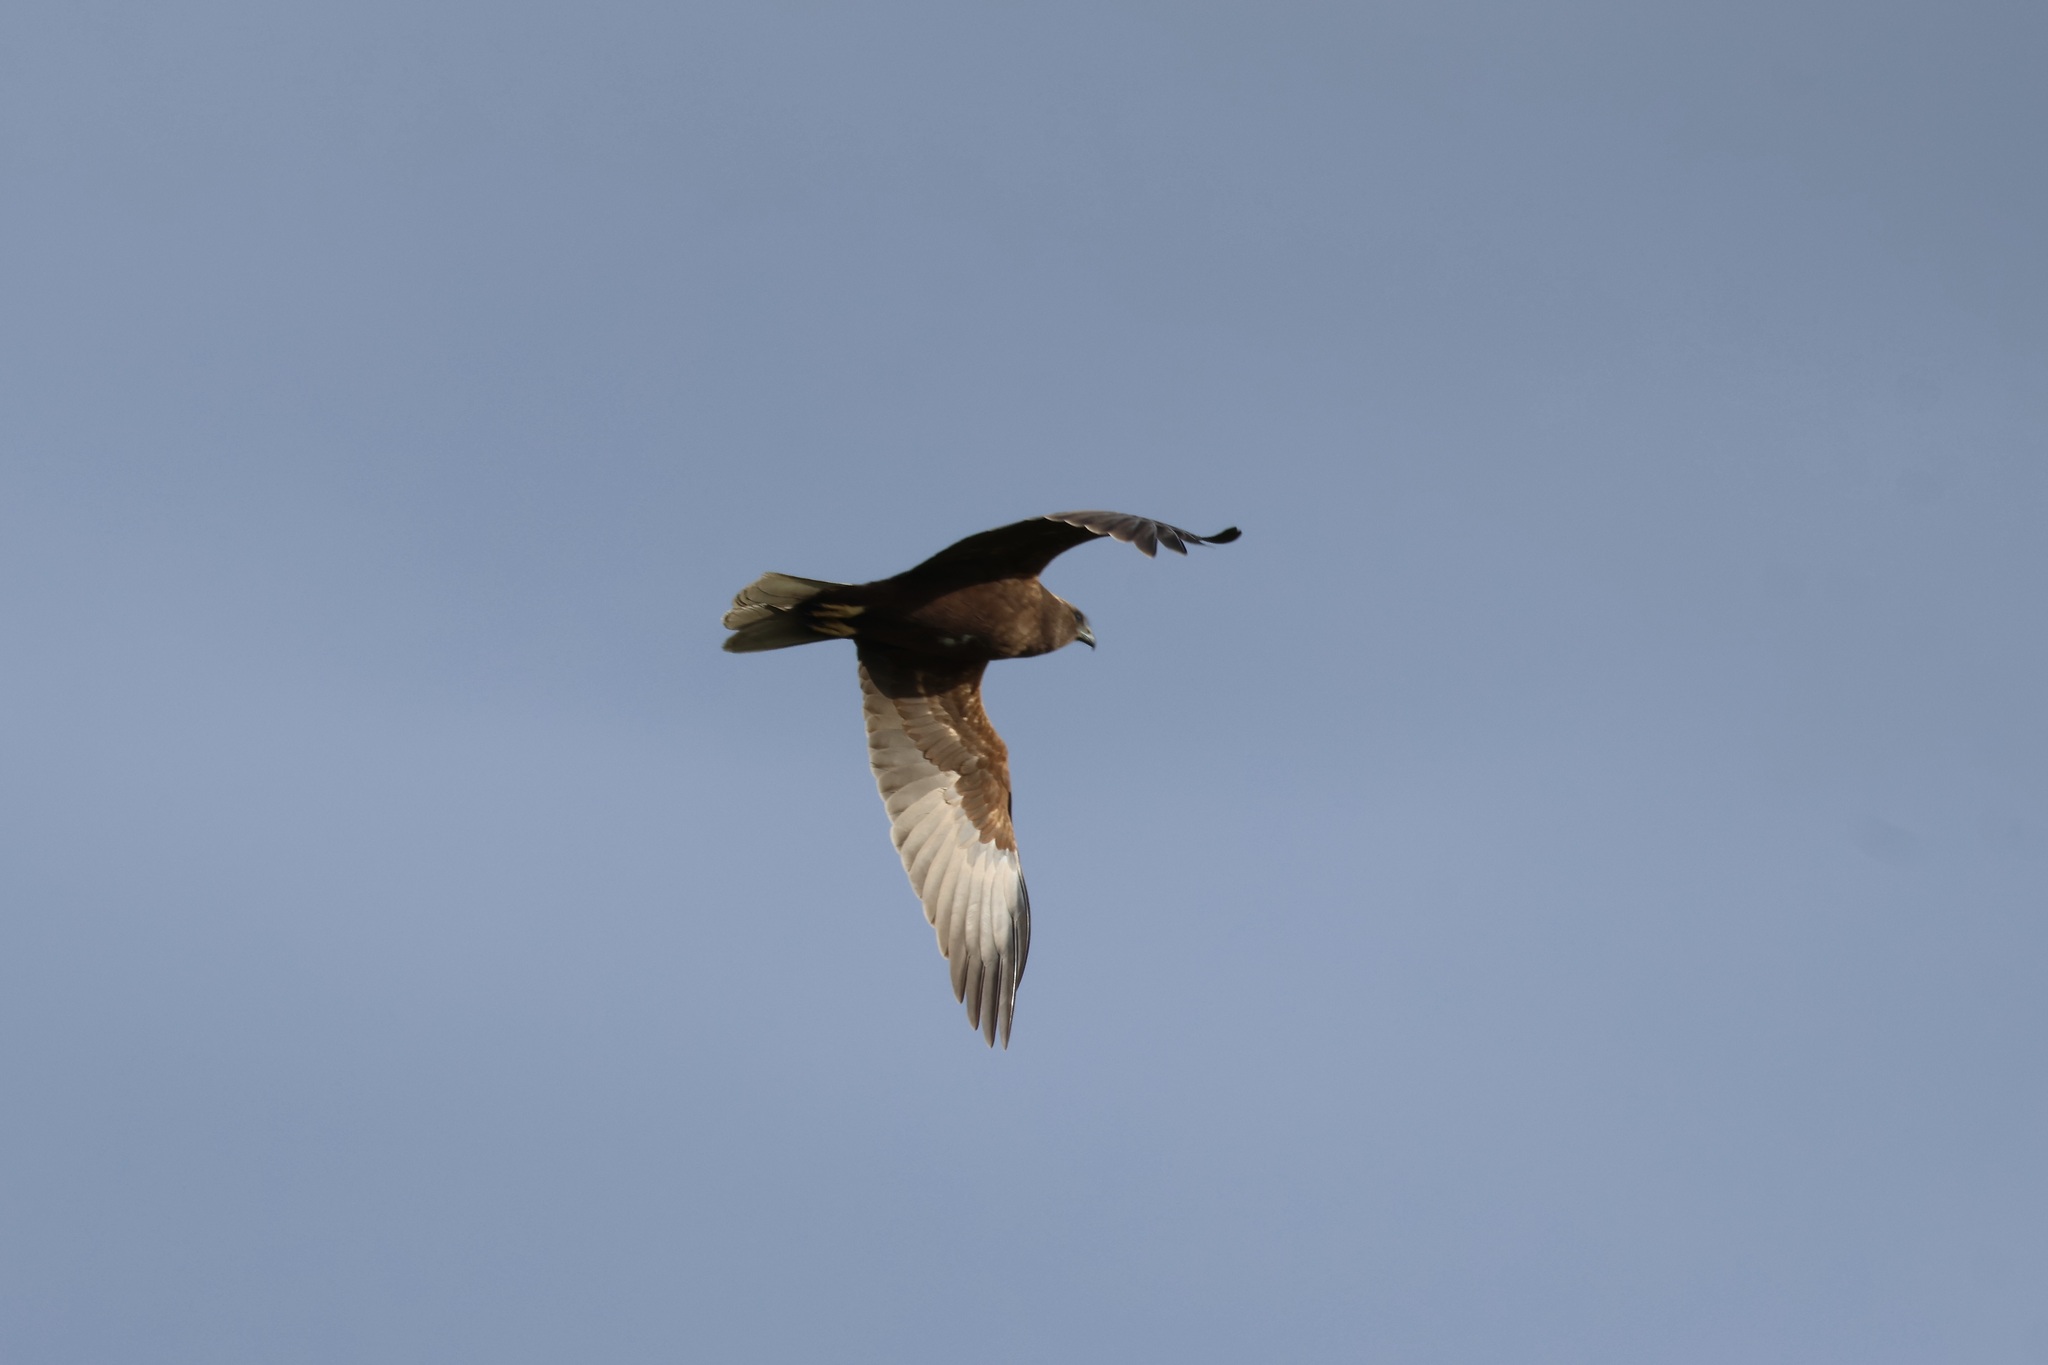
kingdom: Animalia
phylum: Chordata
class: Aves
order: Accipitriformes
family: Accipitridae
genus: Circus
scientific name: Circus aeruginosus
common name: Western marsh harrier
